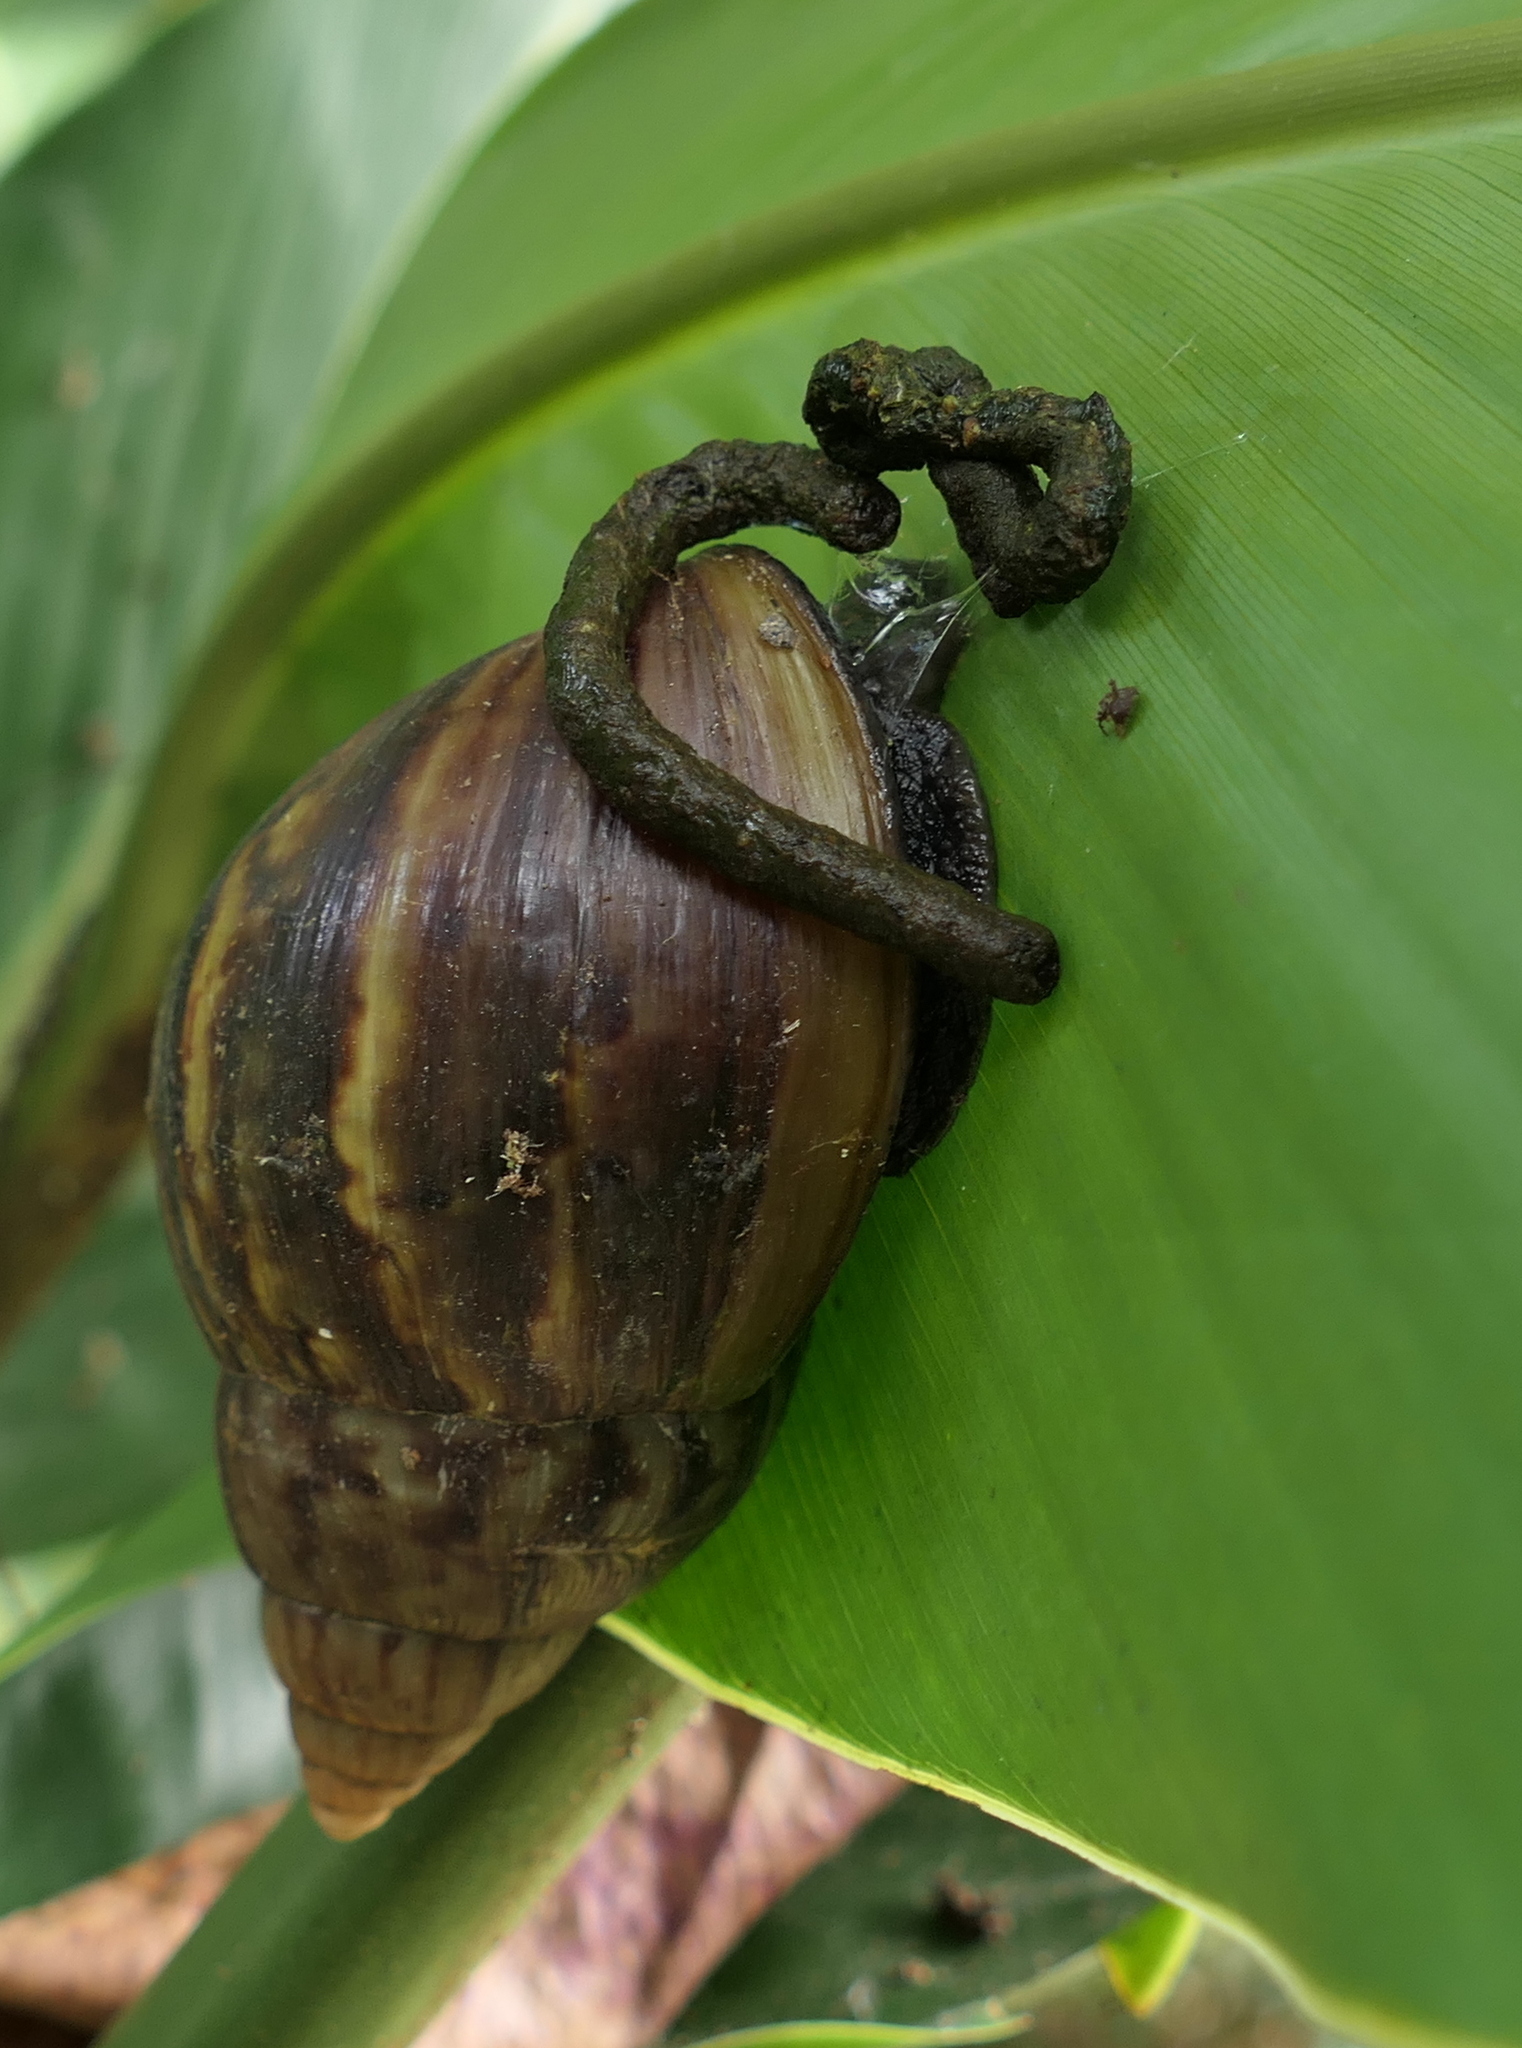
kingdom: Animalia
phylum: Mollusca
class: Gastropoda
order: Stylommatophora
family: Achatinidae
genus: Lissachatina
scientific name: Lissachatina fulica
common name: Giant african snail
